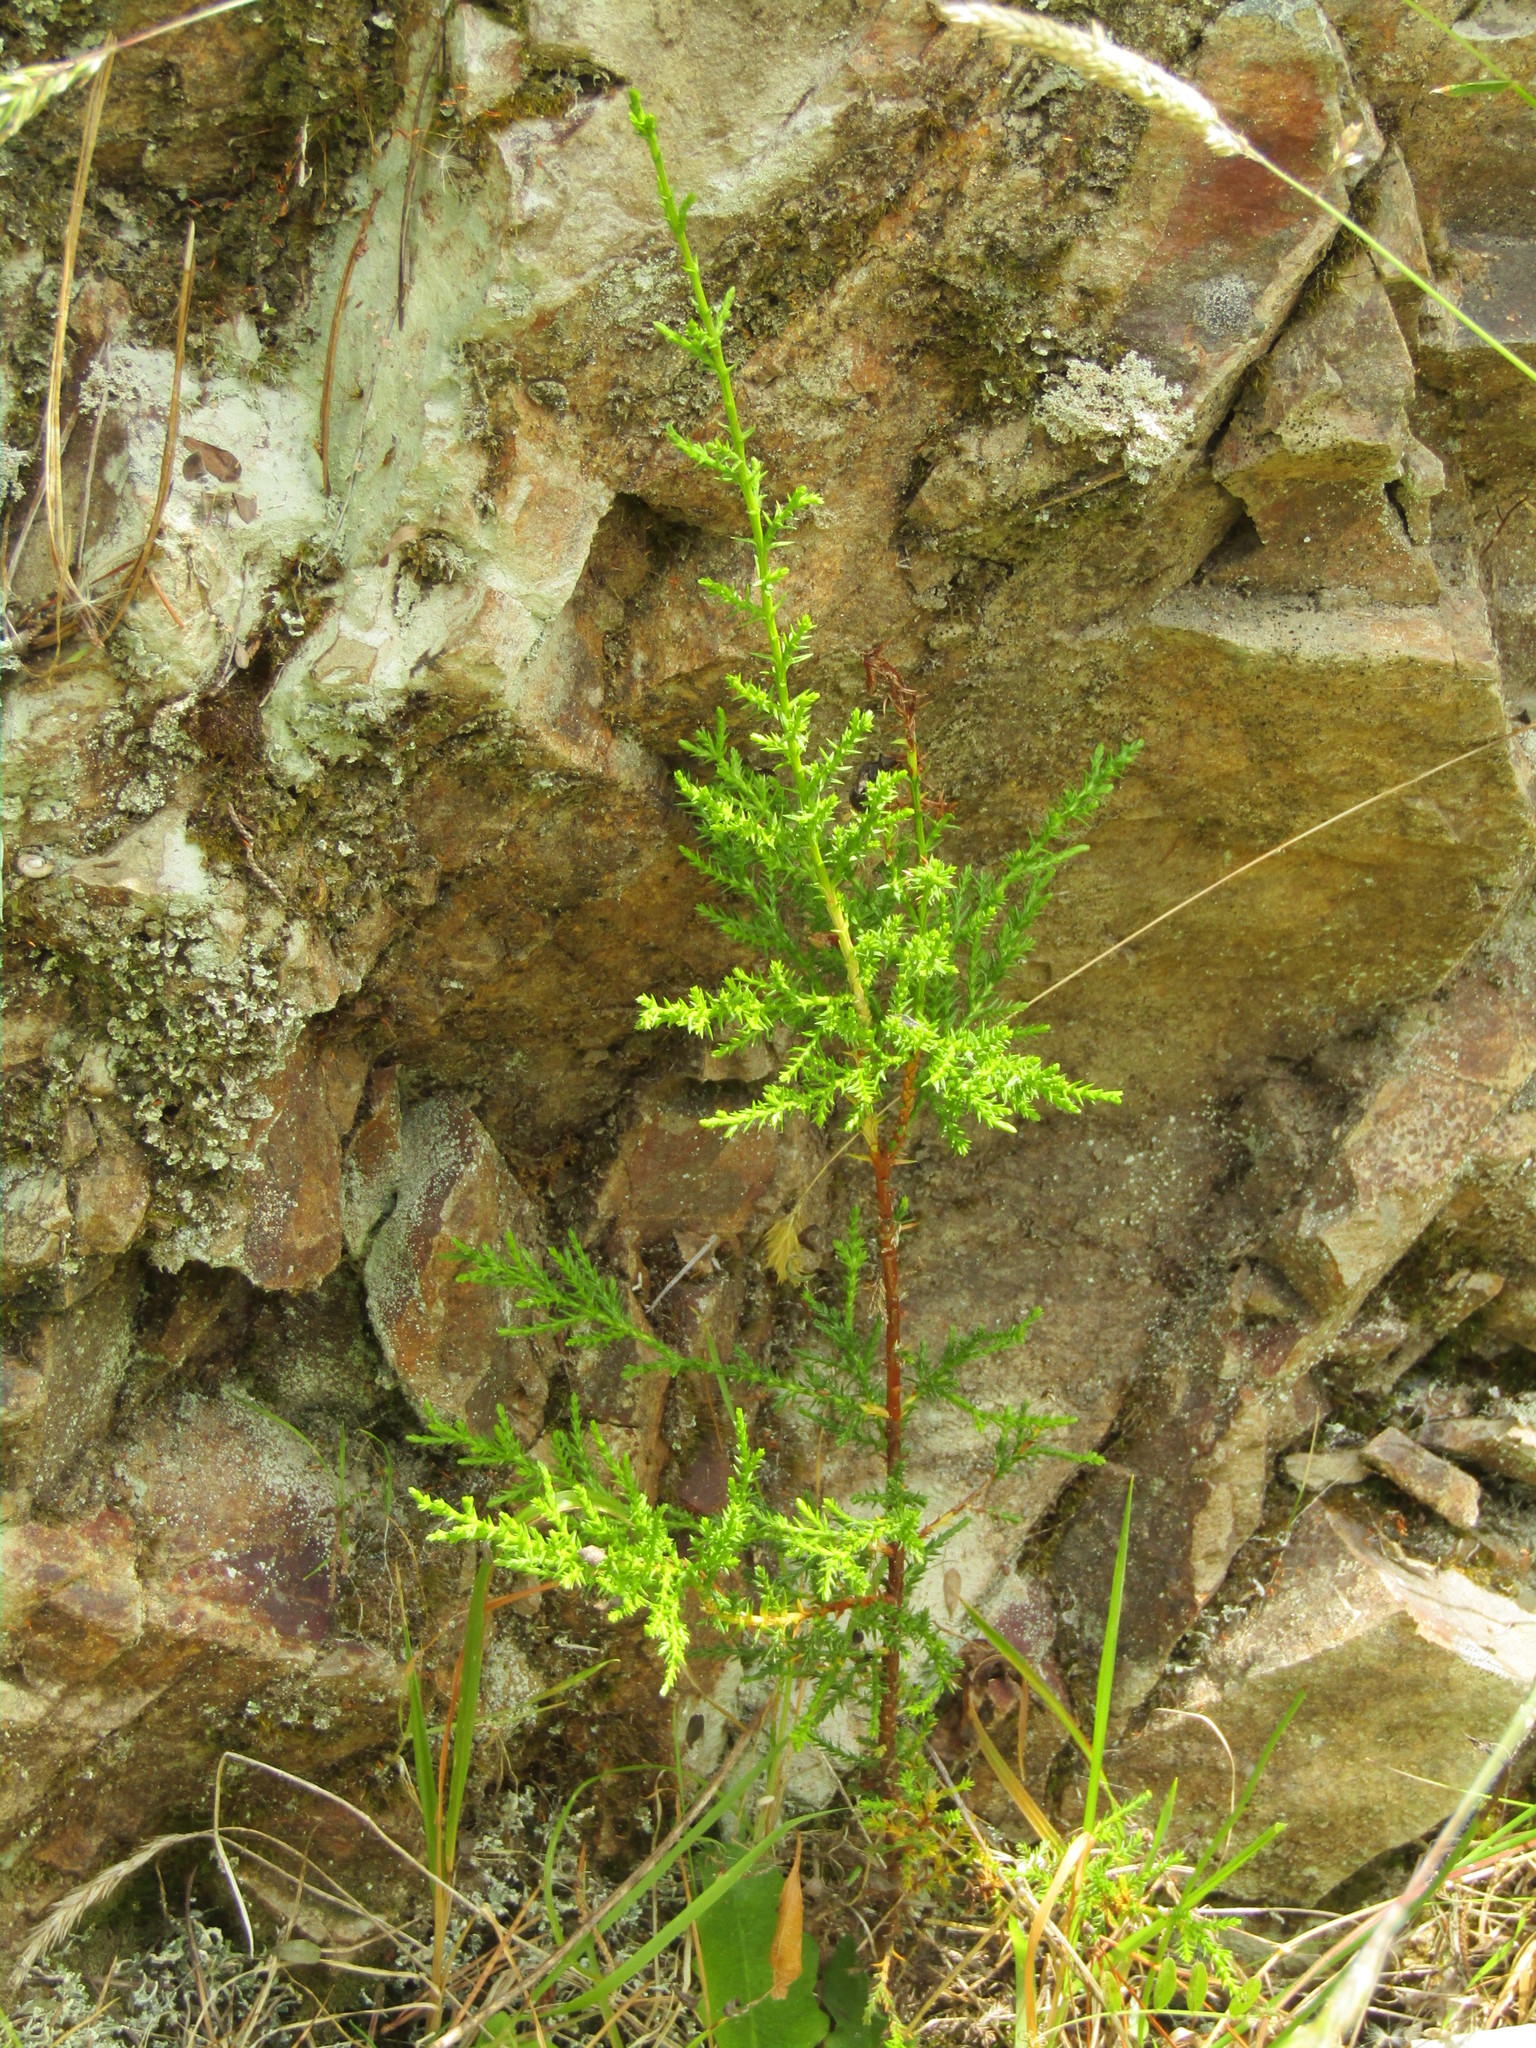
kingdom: Plantae
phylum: Tracheophyta
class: Pinopsida
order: Pinales
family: Cupressaceae
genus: Cupressus
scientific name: Cupressus macrocarpa
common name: Monterey cypress
